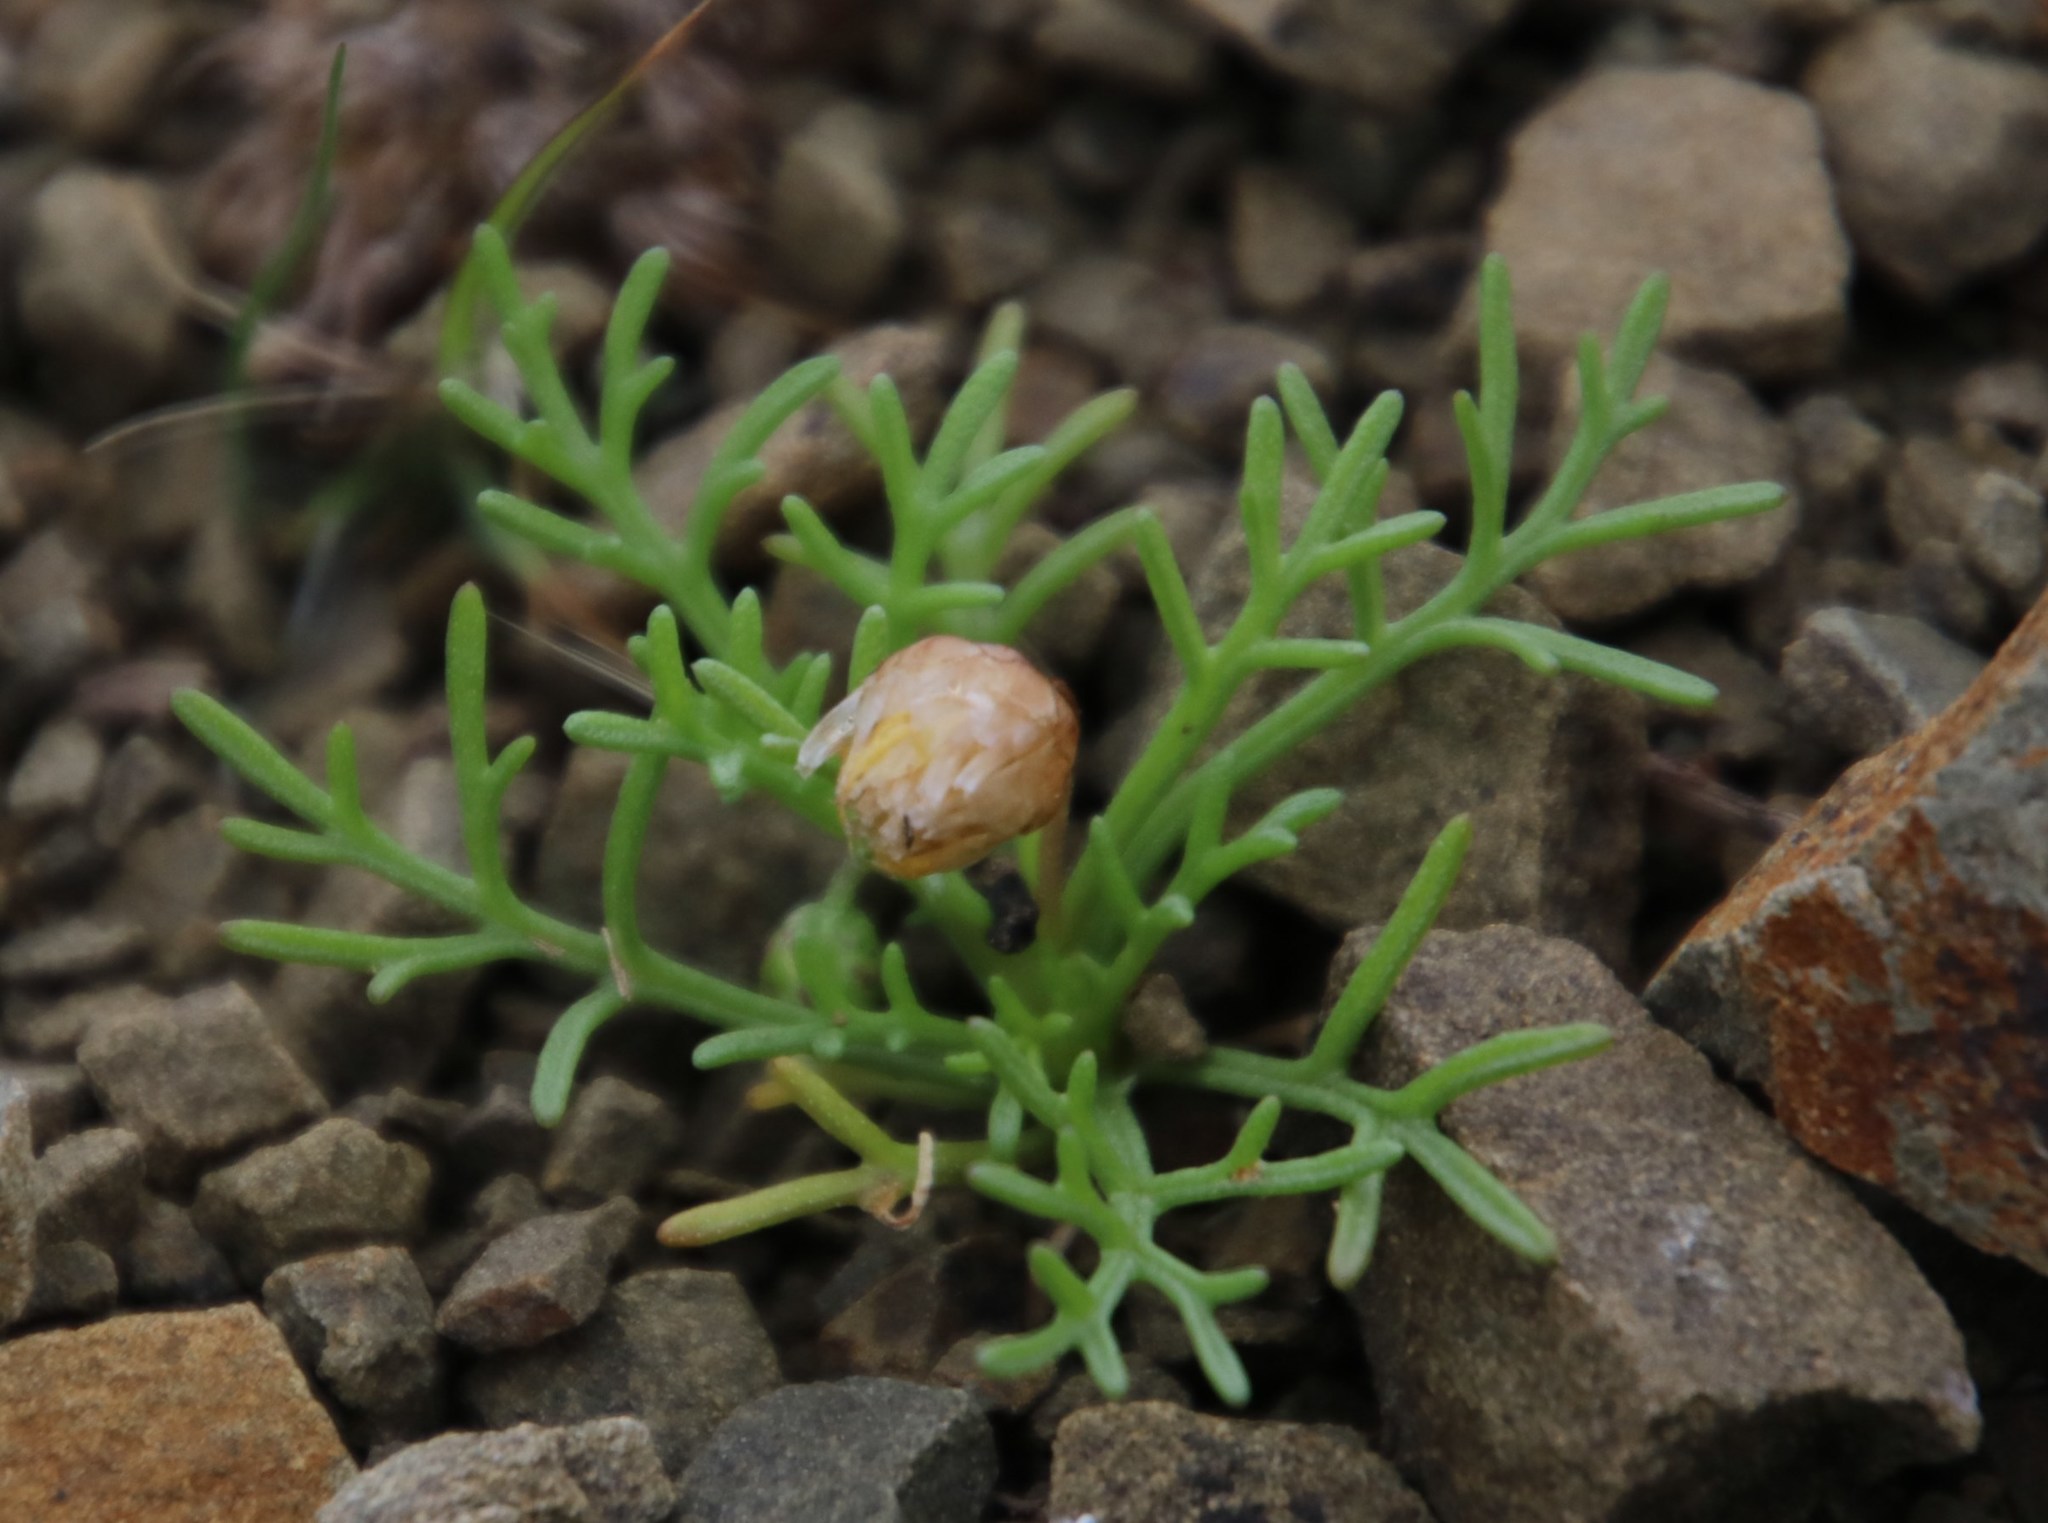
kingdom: Plantae
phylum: Tracheophyta
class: Magnoliopsida
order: Asterales
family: Asteraceae
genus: Ursinia
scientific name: Ursinia nana
